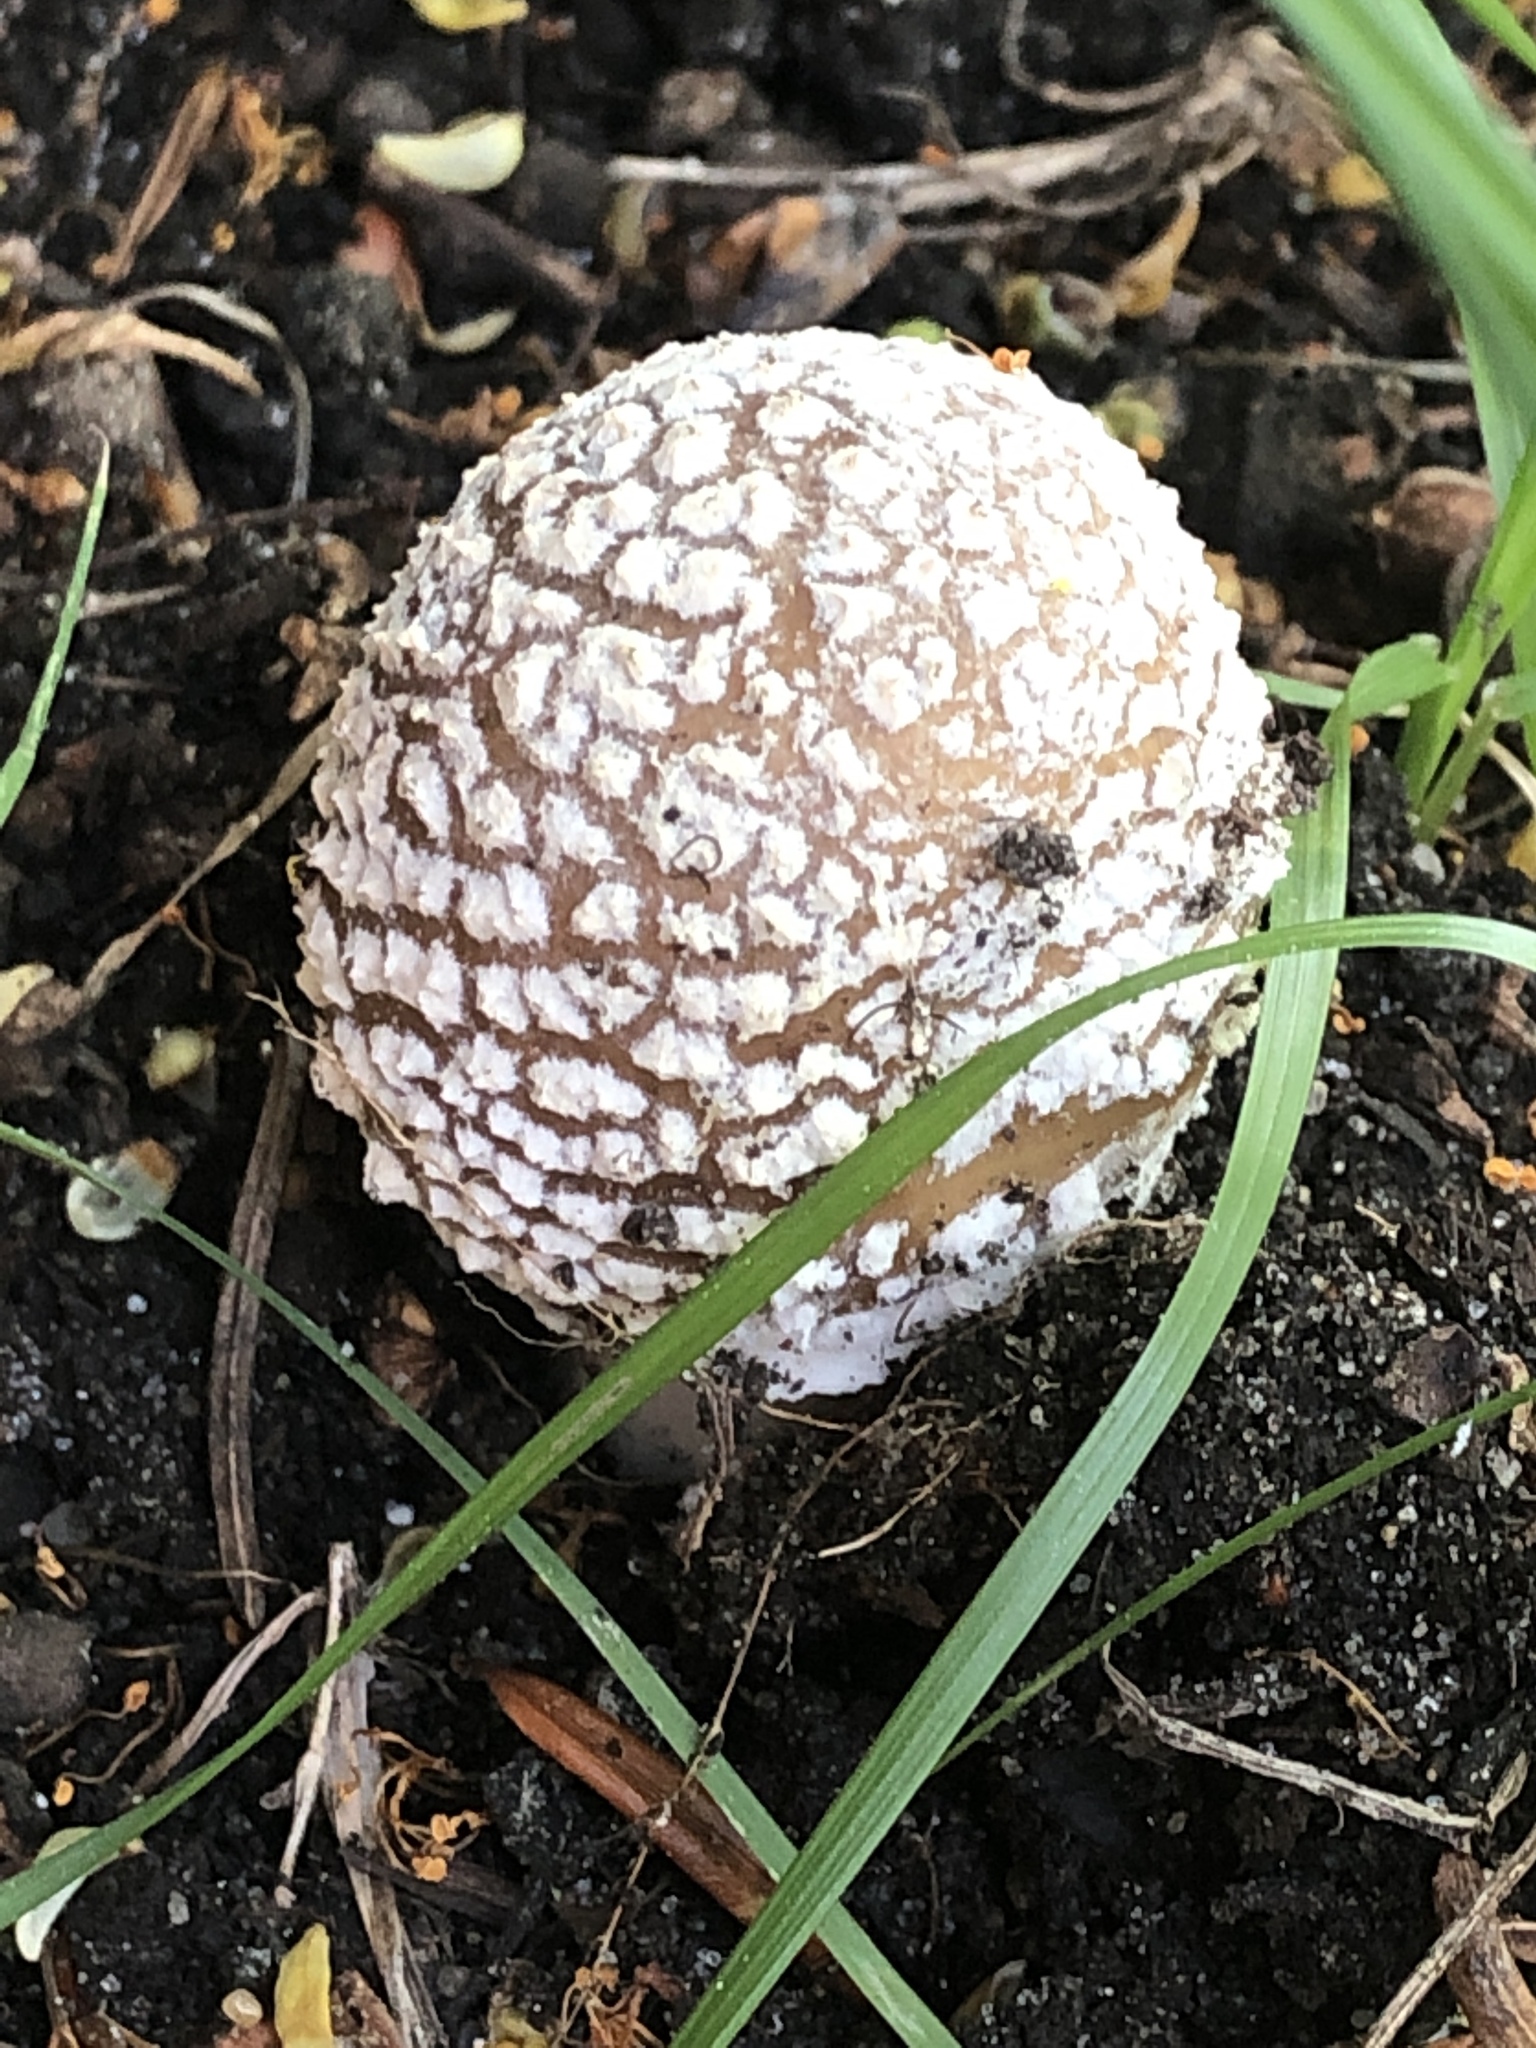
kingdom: Fungi
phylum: Basidiomycota
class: Agaricomycetes
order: Agaricales
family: Amanitaceae
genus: Amanita
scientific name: Amanita pantherina
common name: Panthercap
